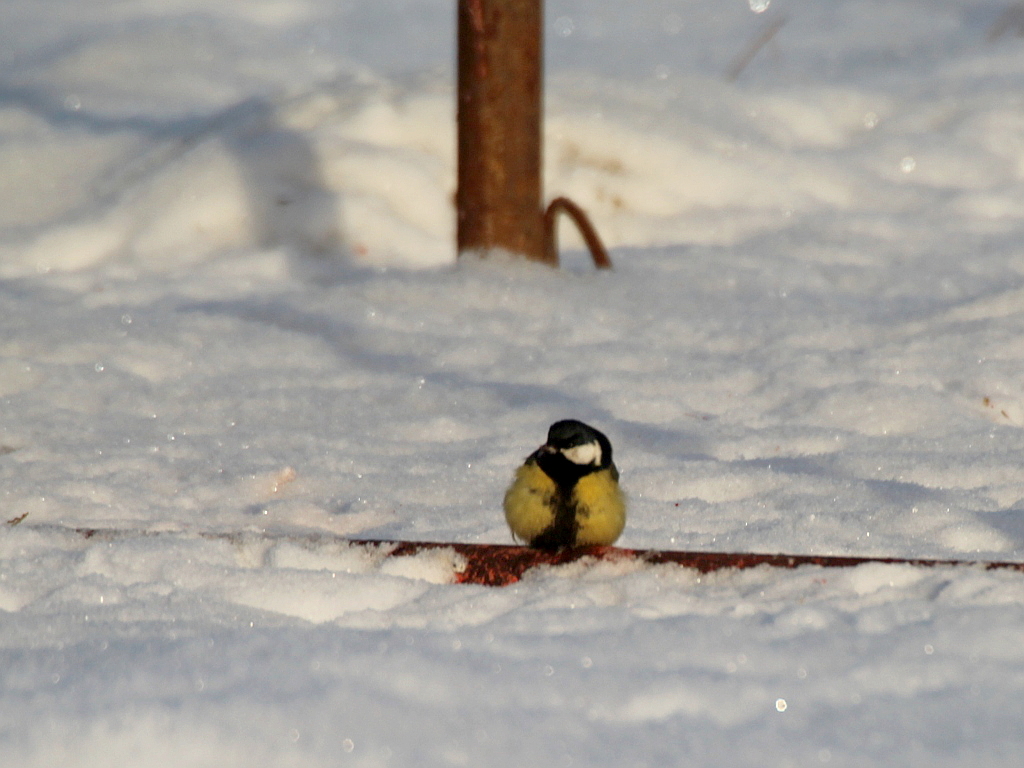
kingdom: Animalia
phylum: Chordata
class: Aves
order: Passeriformes
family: Paridae
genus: Parus
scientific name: Parus major
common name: Great tit
